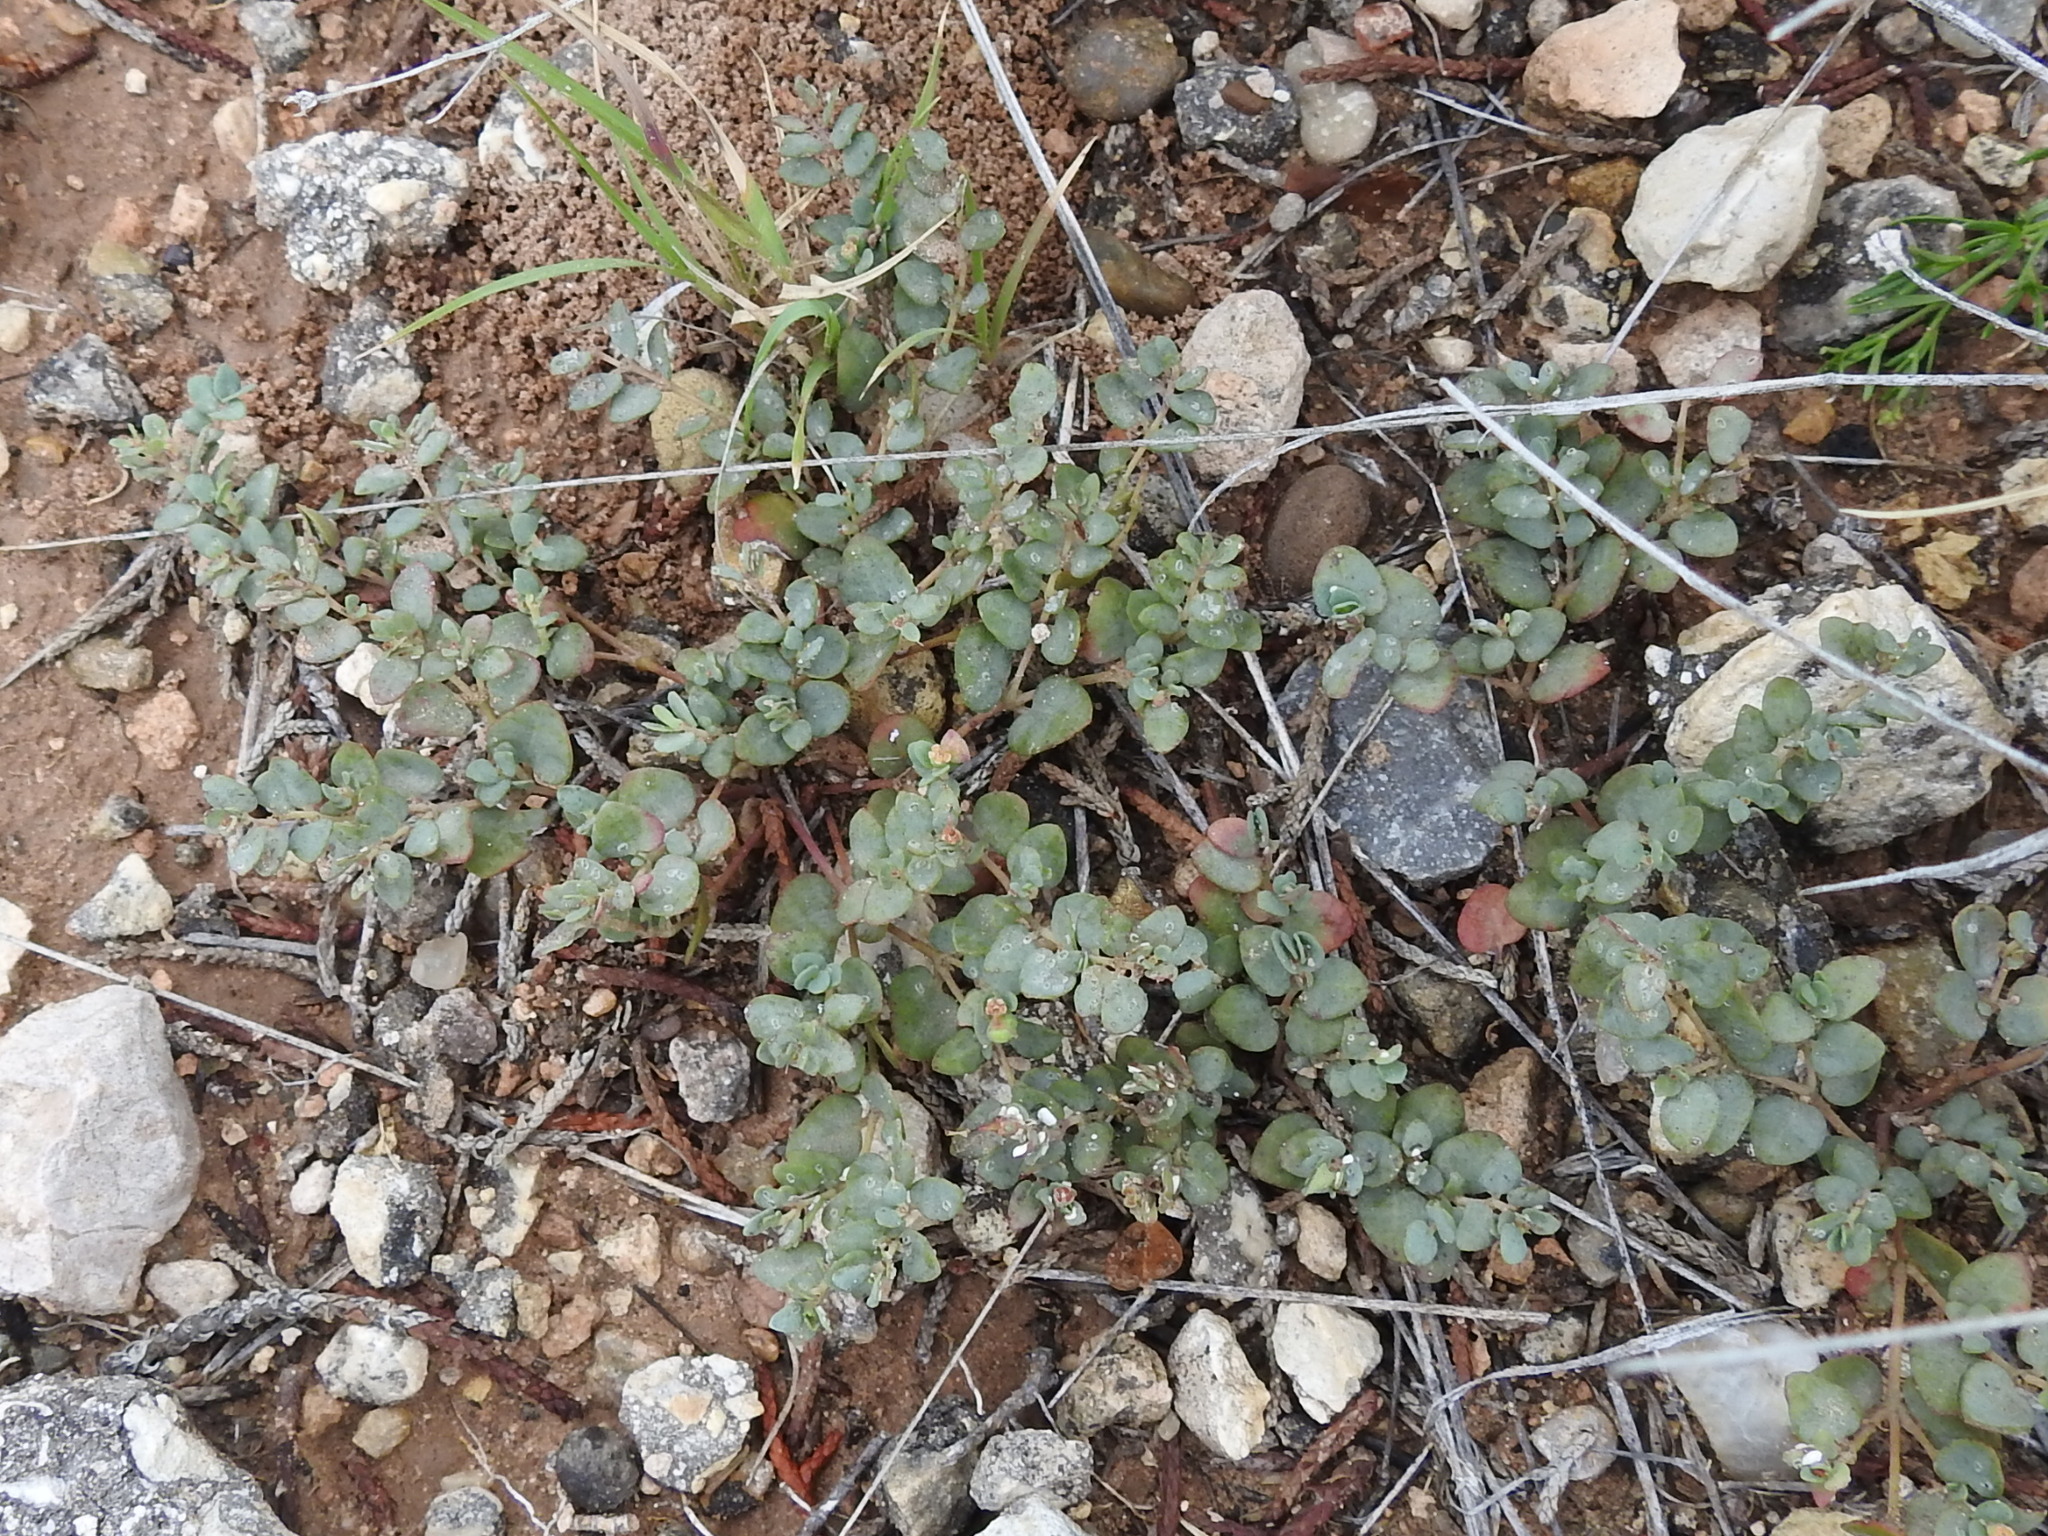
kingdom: Plantae
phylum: Tracheophyta
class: Magnoliopsida
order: Malpighiales
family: Euphorbiaceae
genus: Euphorbia
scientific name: Euphorbia fendleri
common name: Fendler's euphorbia
